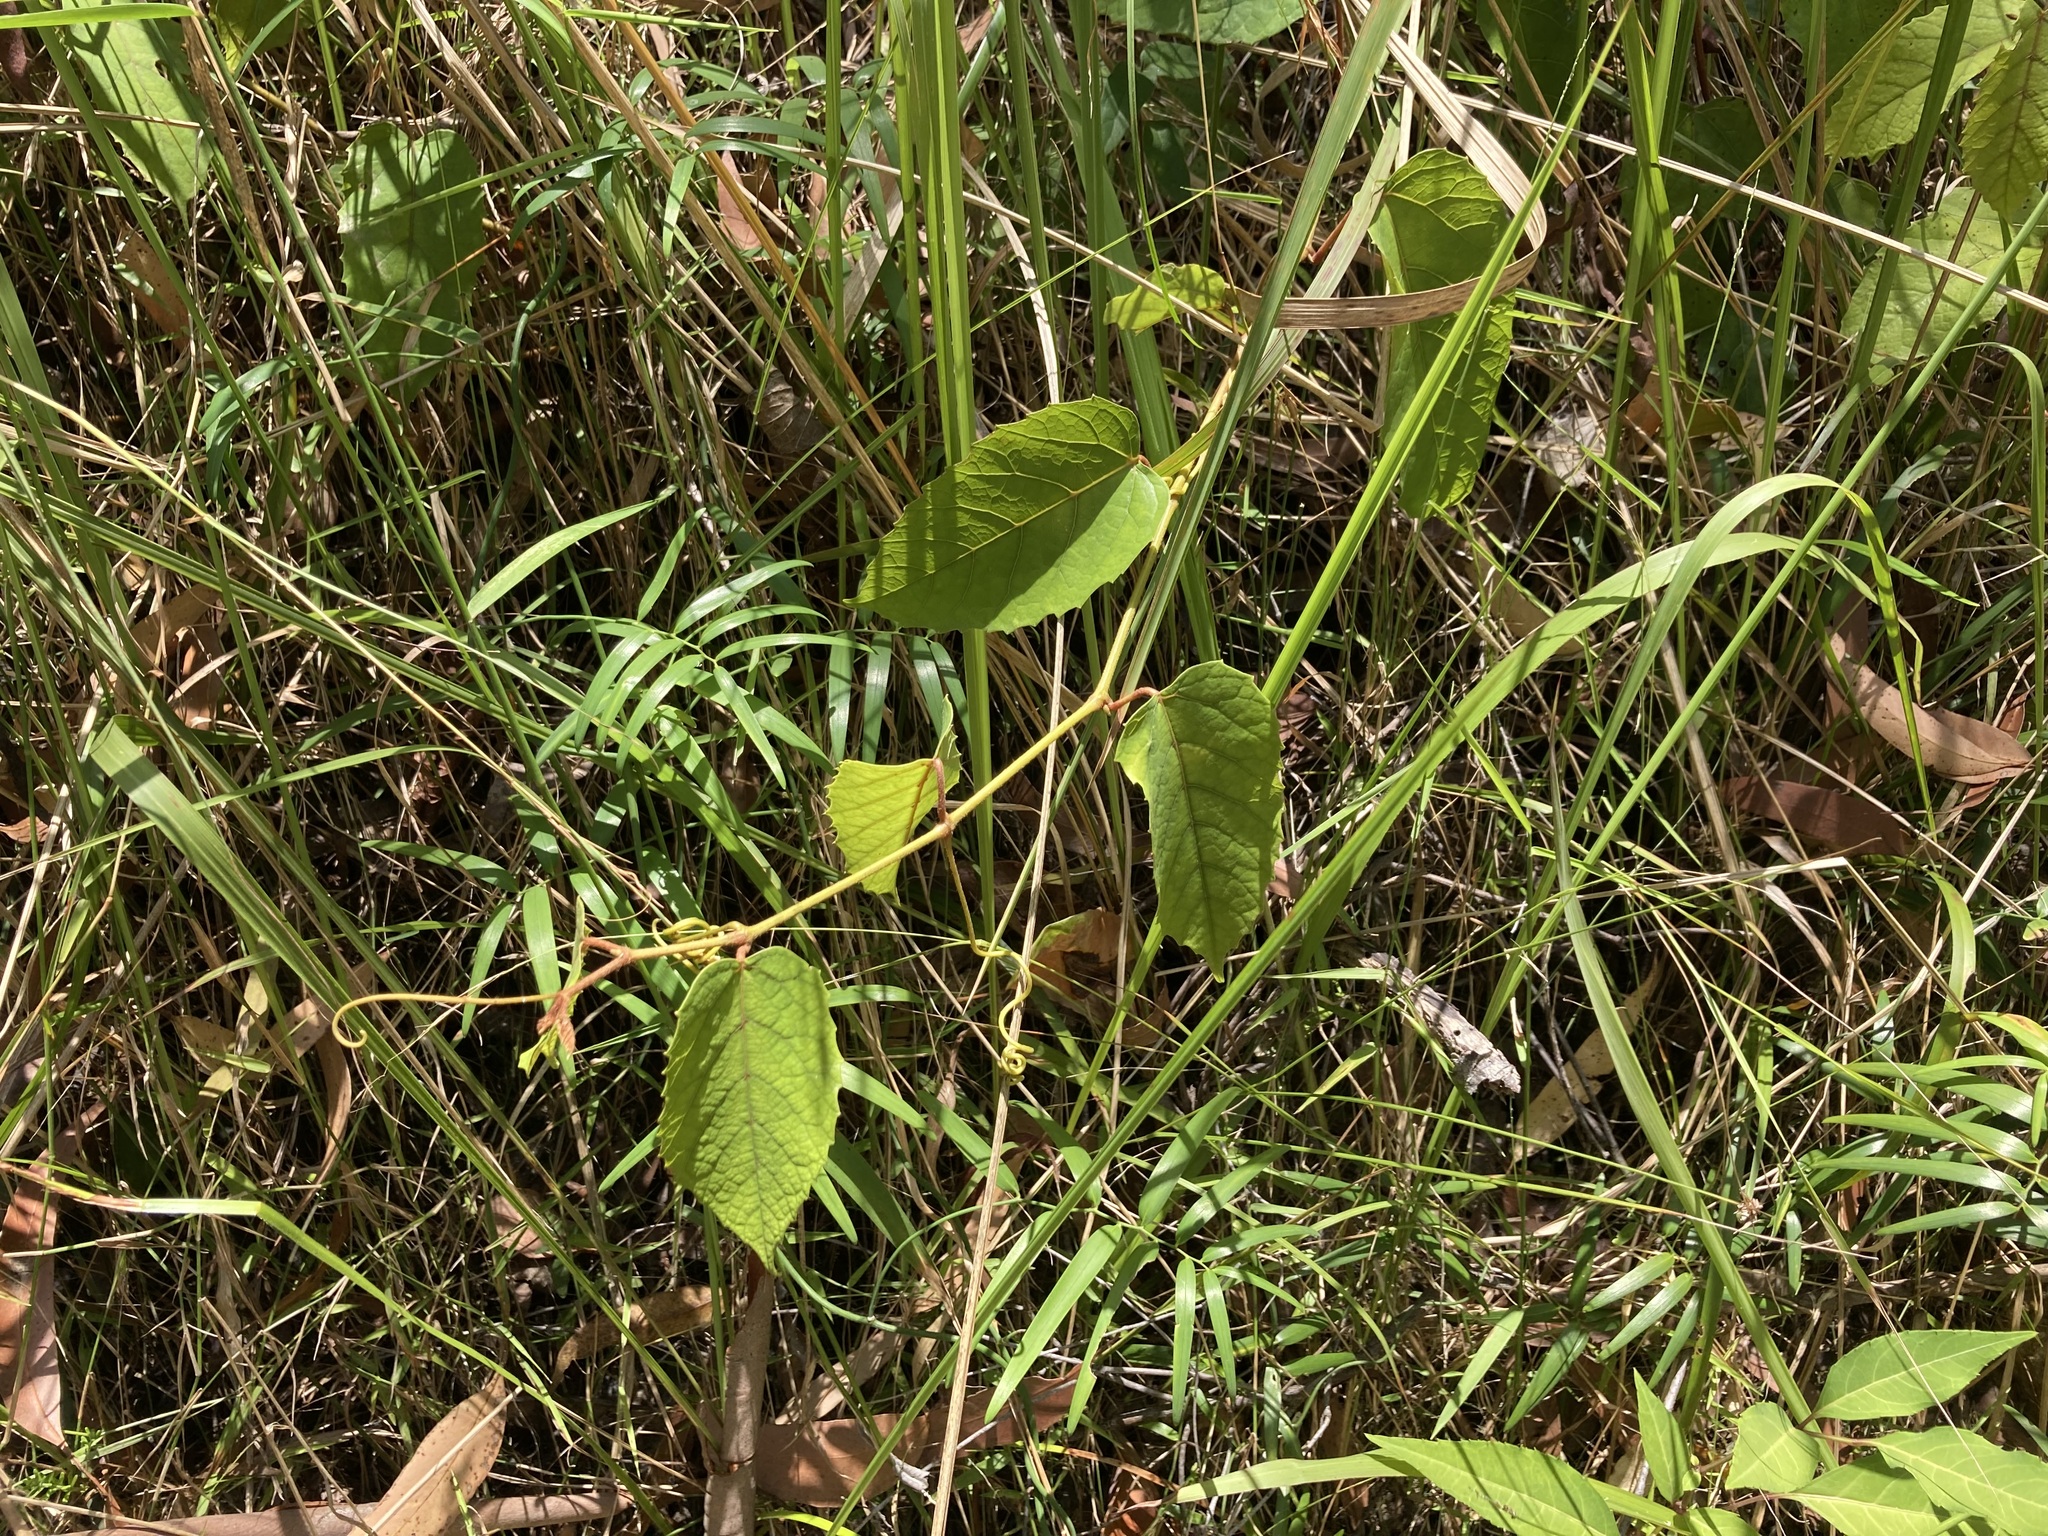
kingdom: Plantae
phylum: Tracheophyta
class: Magnoliopsida
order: Vitales
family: Vitaceae
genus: Cissus
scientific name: Cissus antarctica
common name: Kangaroo vine
